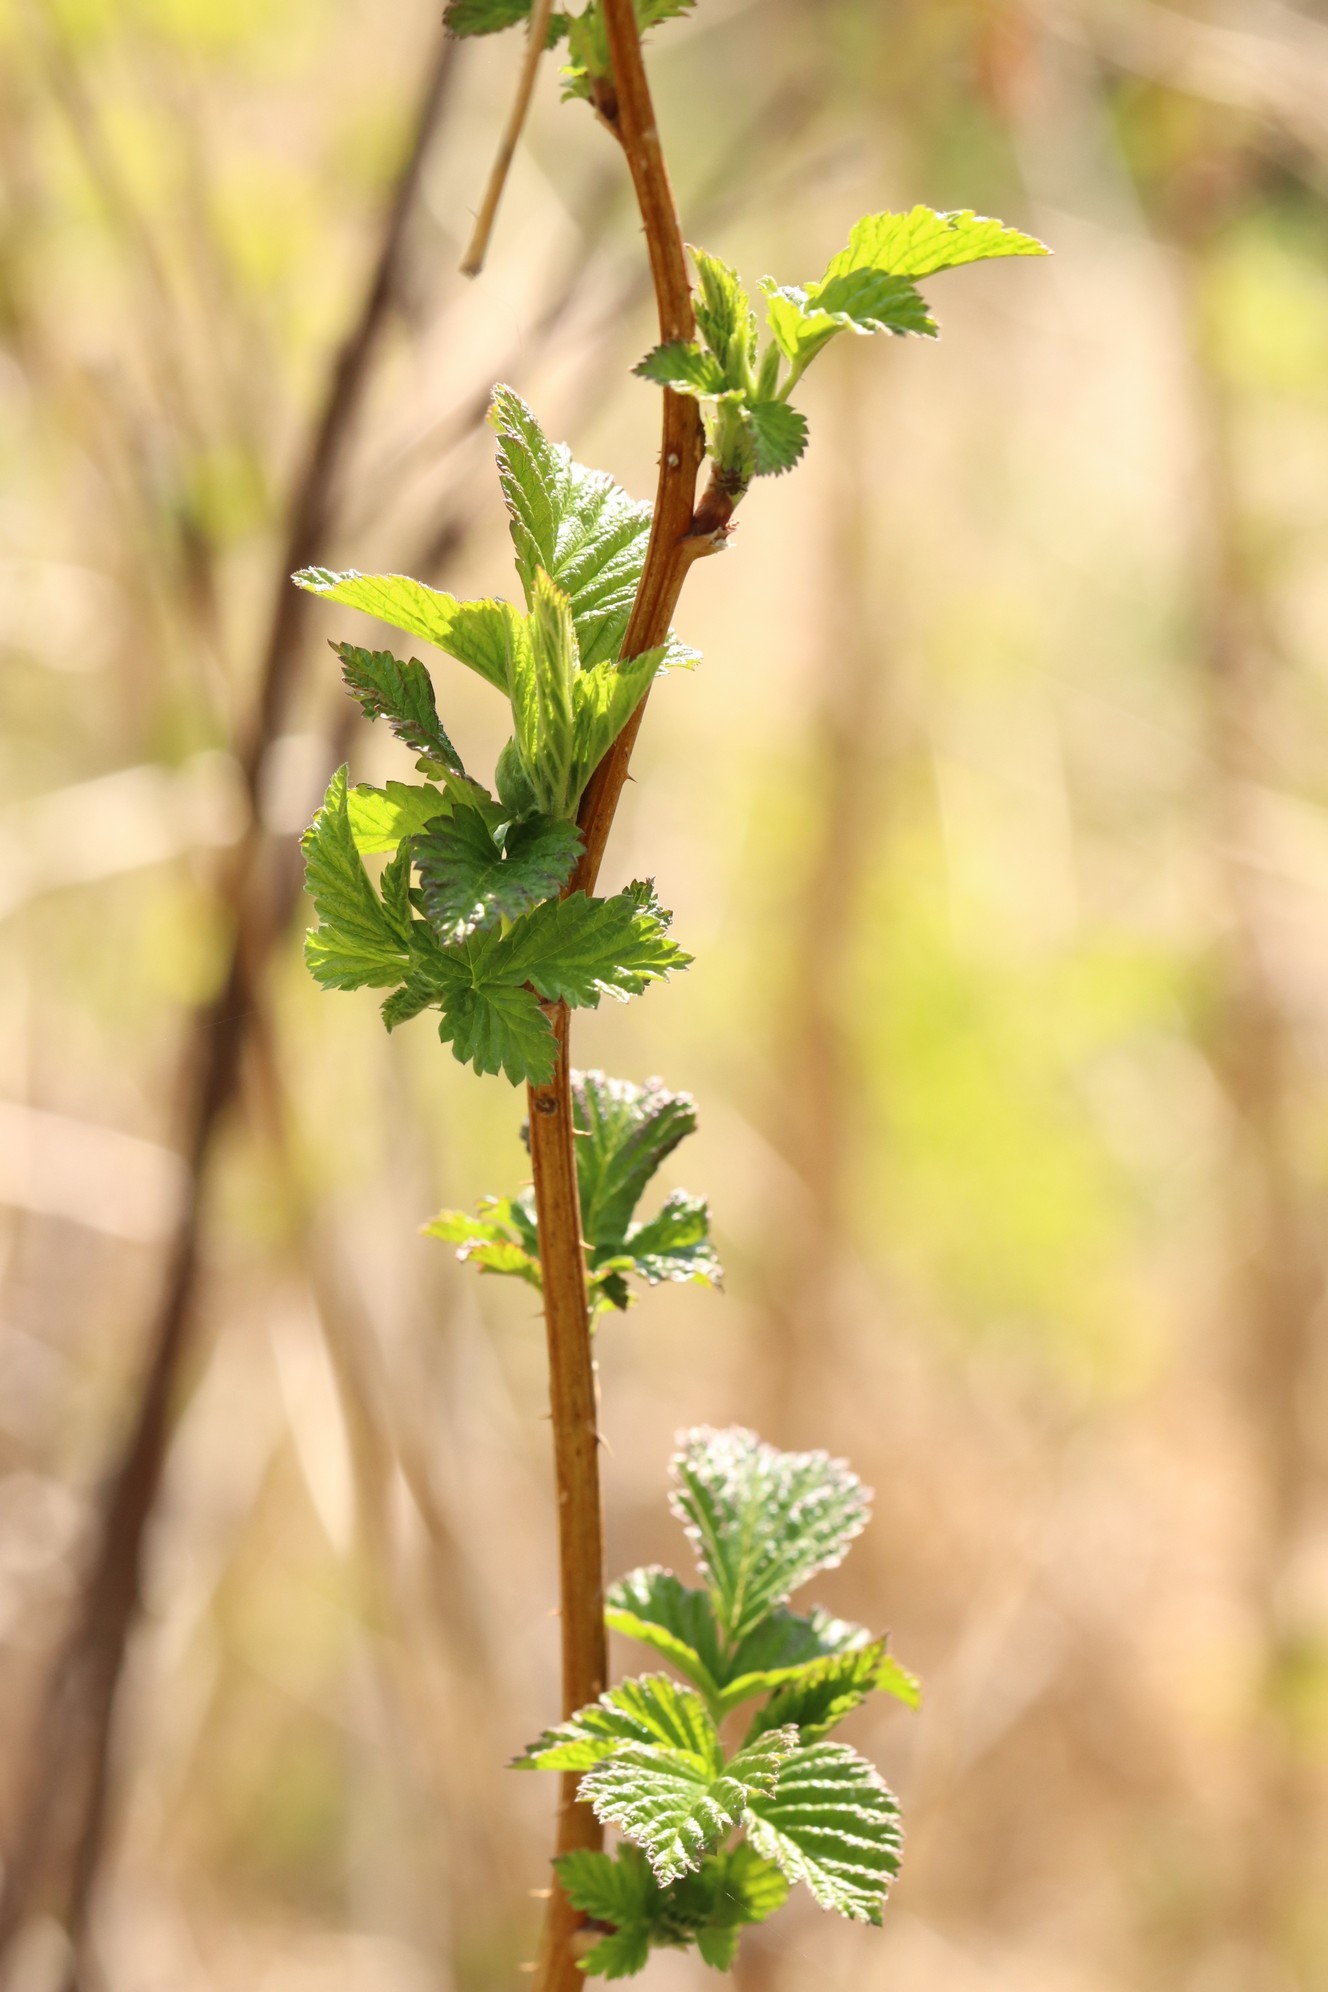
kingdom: Plantae
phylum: Tracheophyta
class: Magnoliopsida
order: Rosales
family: Rosaceae
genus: Rubus
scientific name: Rubus idaeus
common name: Raspberry
